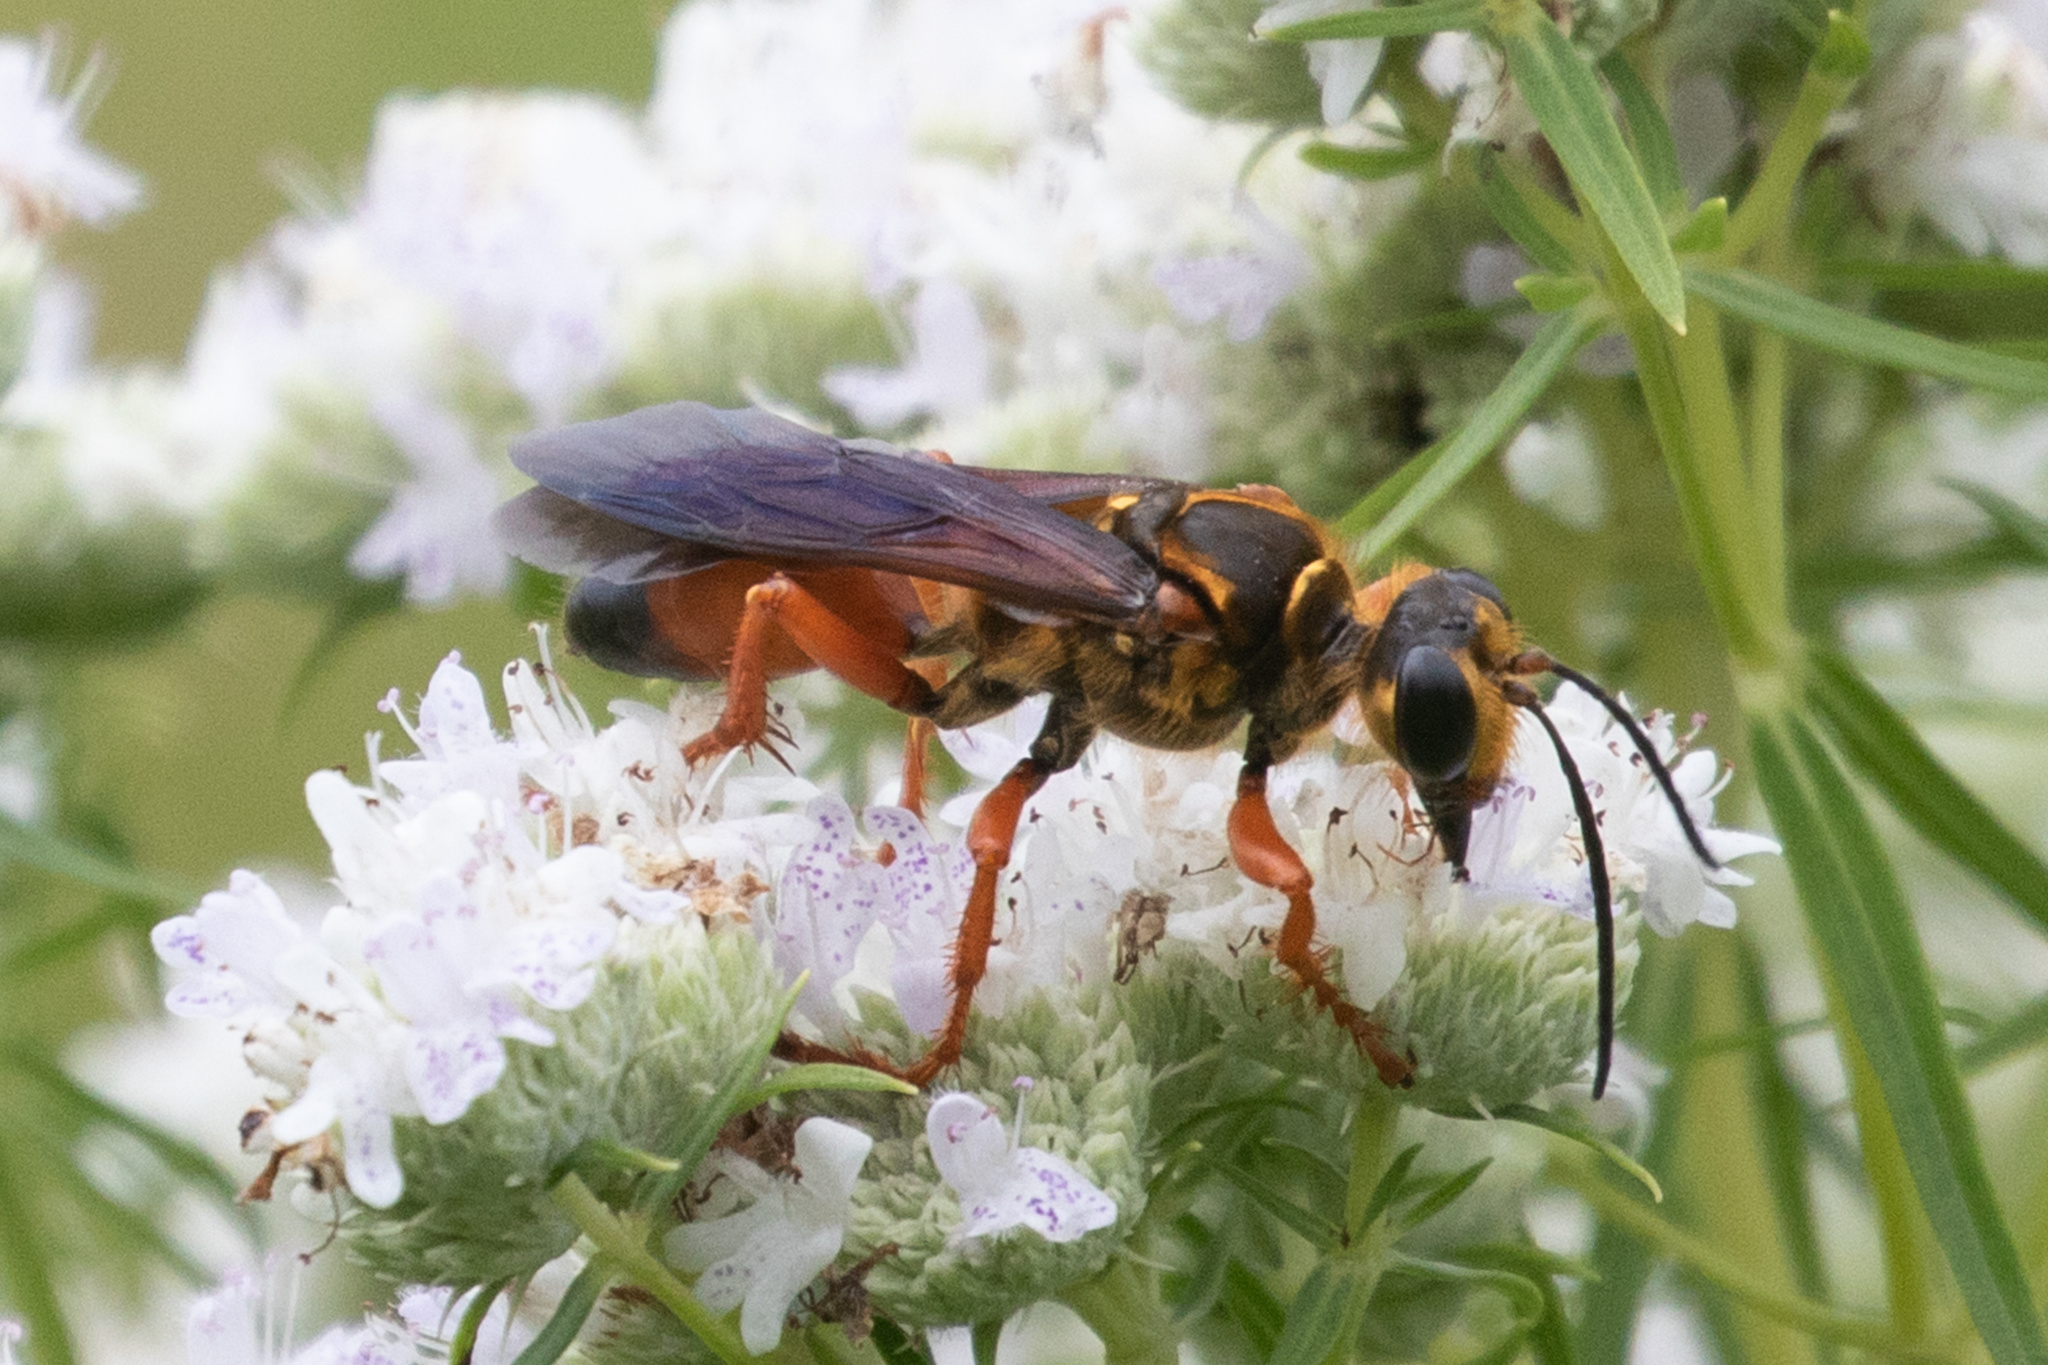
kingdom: Animalia
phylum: Arthropoda
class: Insecta
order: Hymenoptera
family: Sphecidae
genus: Sphex
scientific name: Sphex ichneumoneus
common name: Great golden digger wasp
